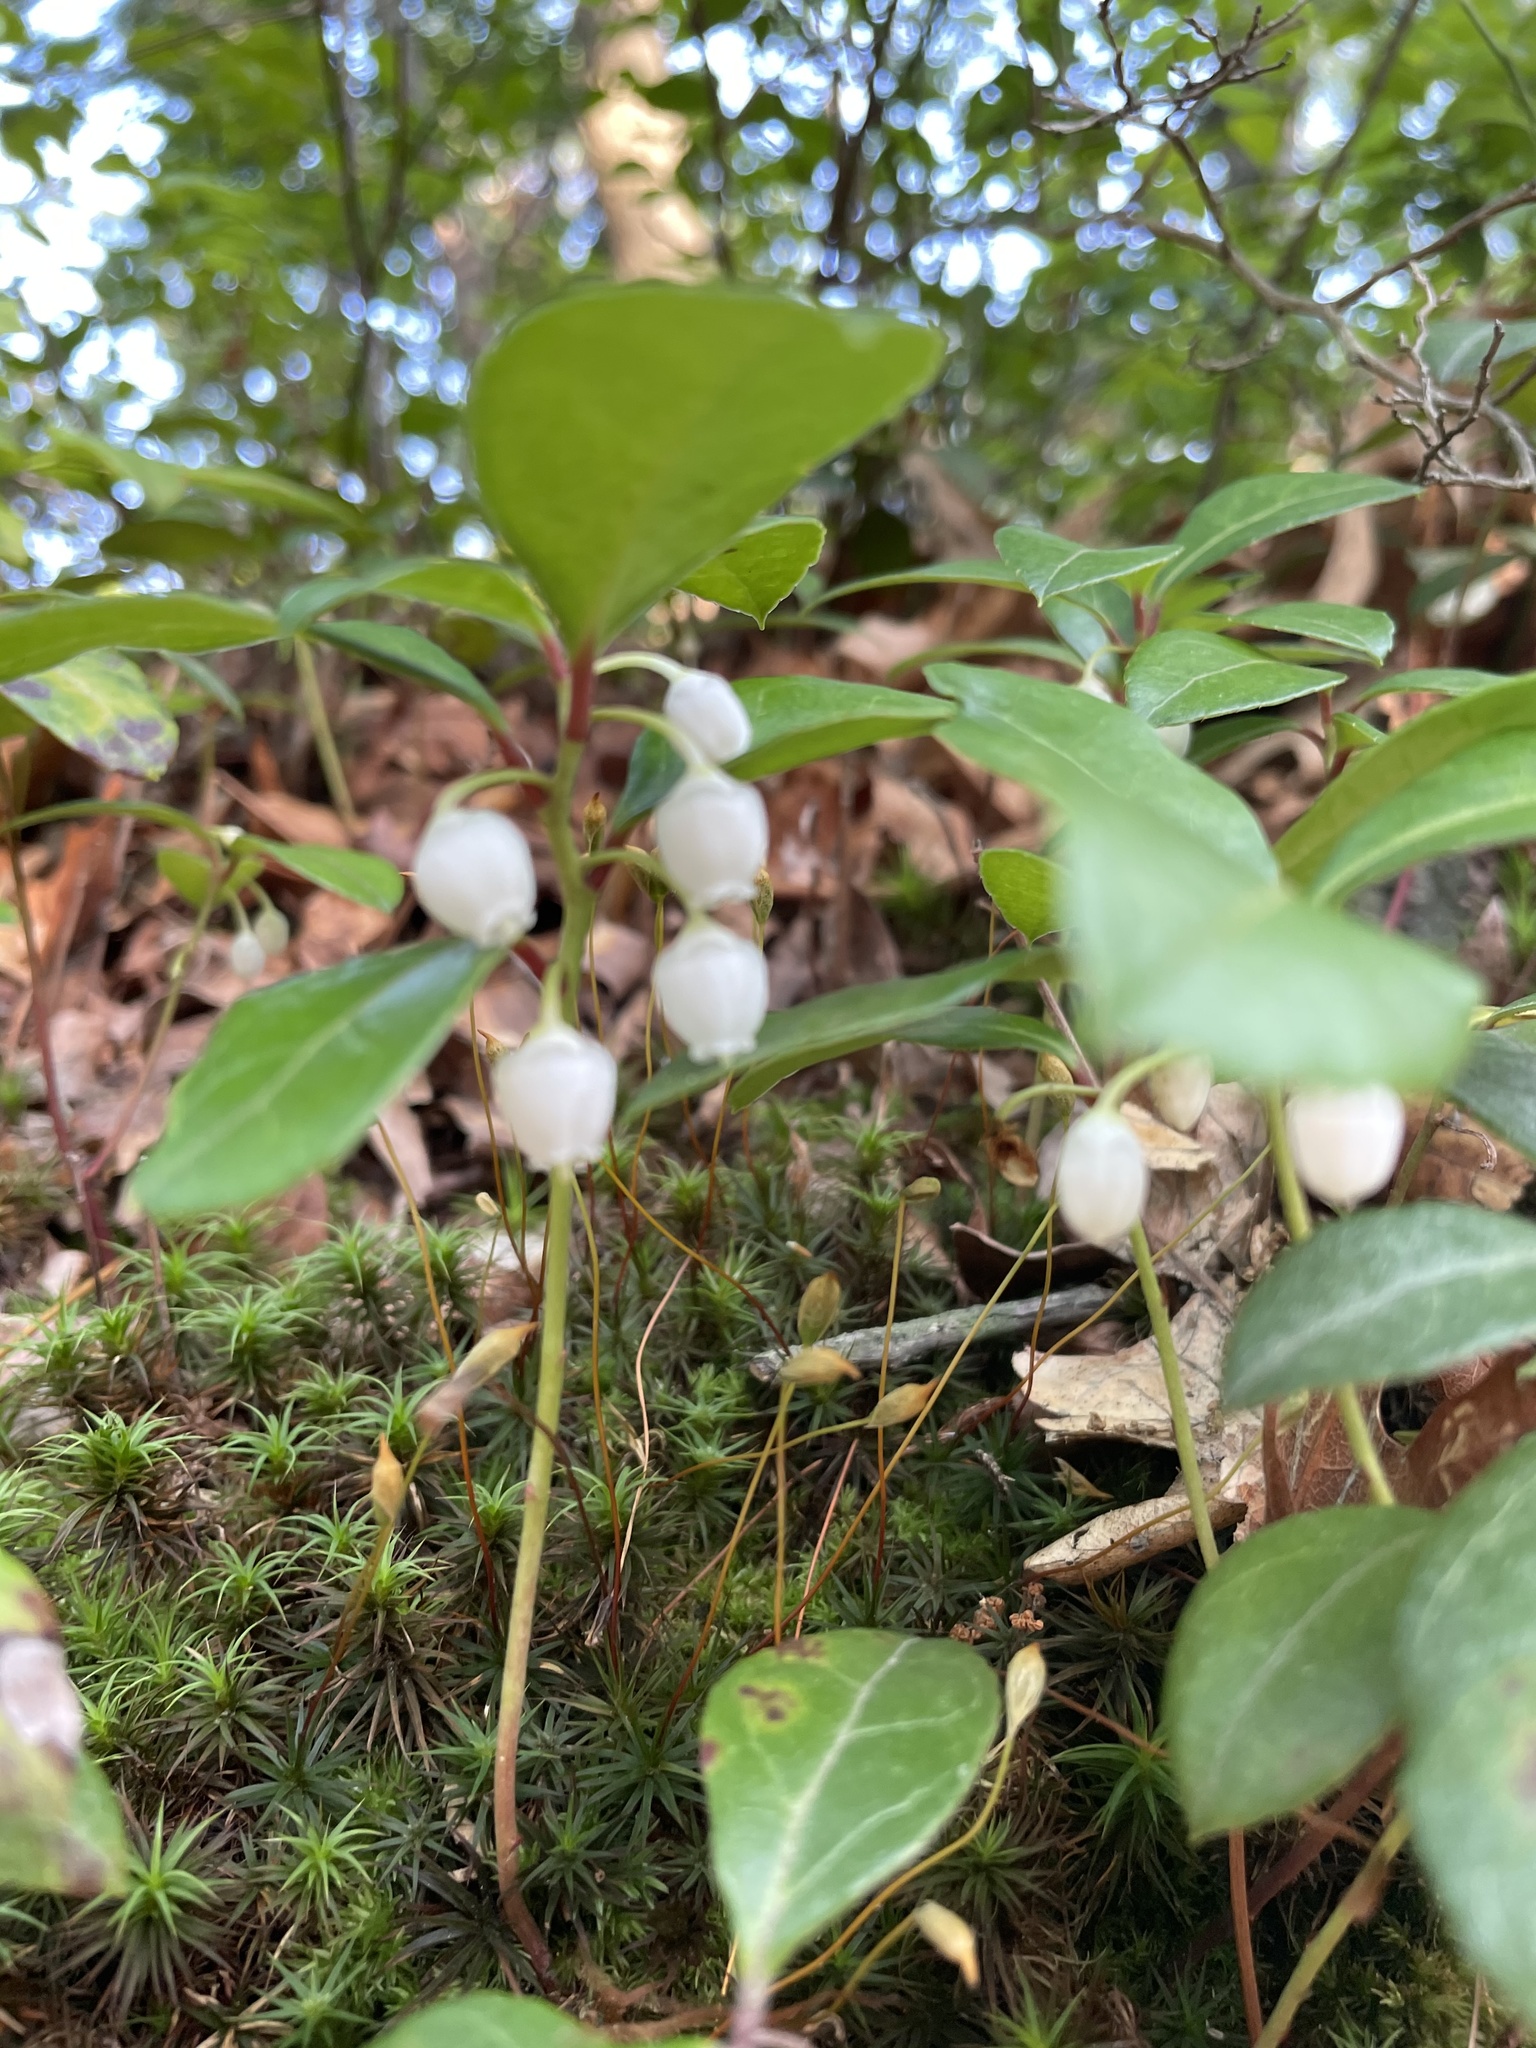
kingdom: Plantae
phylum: Tracheophyta
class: Magnoliopsida
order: Ericales
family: Ericaceae
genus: Gaultheria
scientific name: Gaultheria procumbens
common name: Checkerberry
